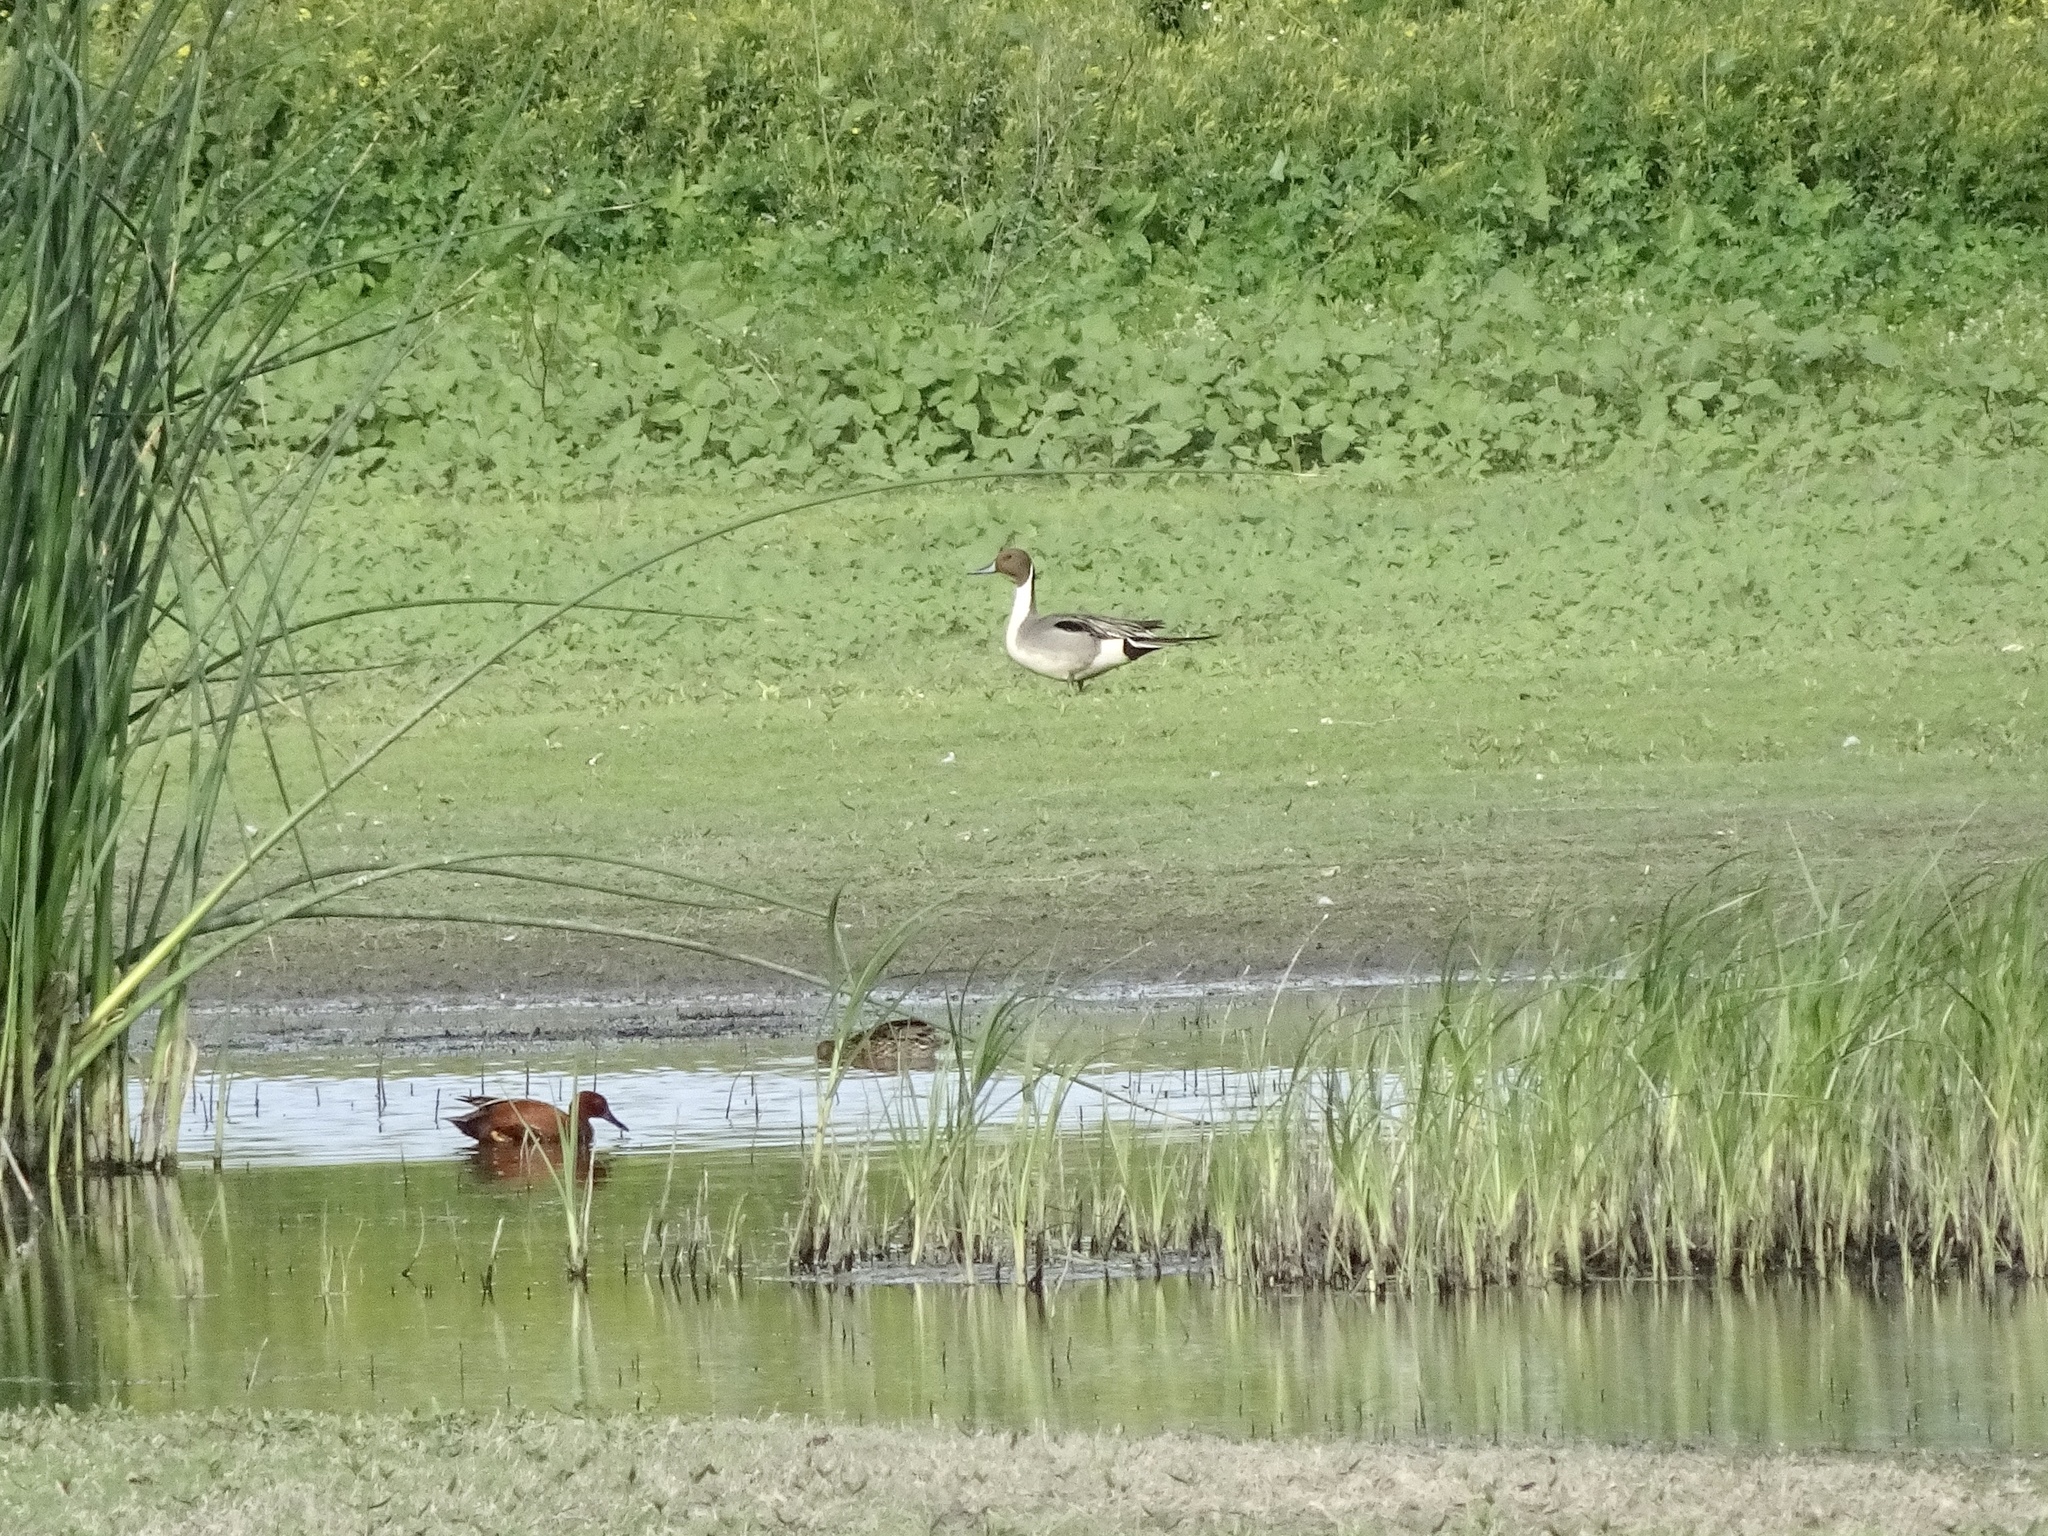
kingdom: Animalia
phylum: Chordata
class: Aves
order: Anseriformes
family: Anatidae
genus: Anas
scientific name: Anas acuta
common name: Northern pintail
